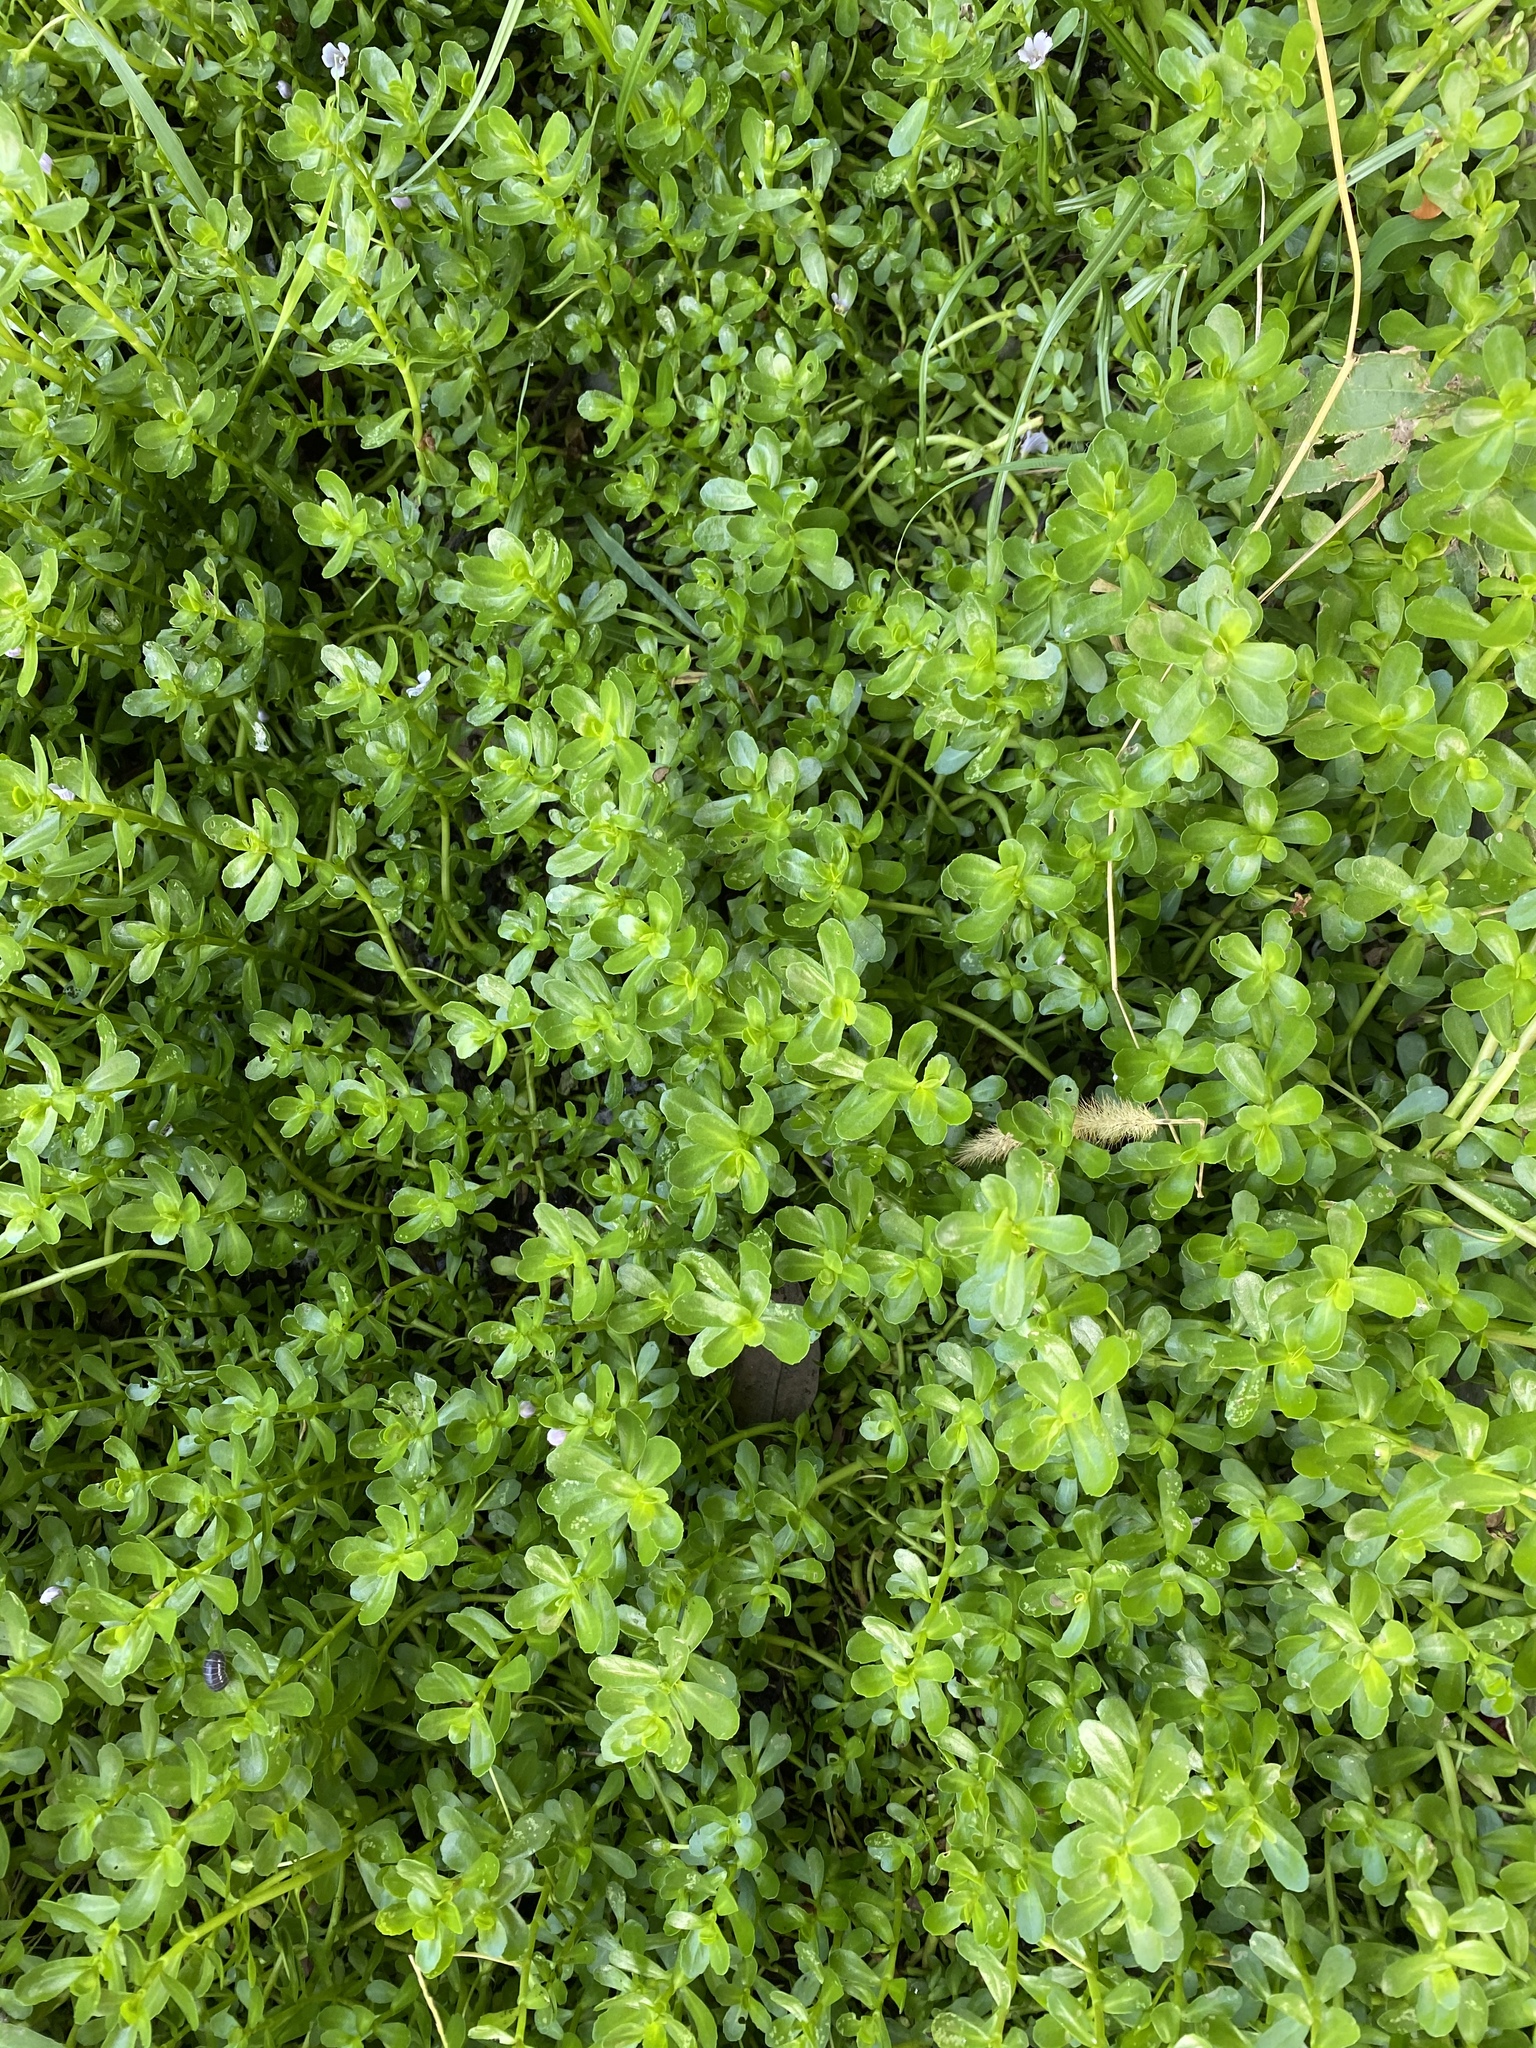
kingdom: Plantae
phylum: Tracheophyta
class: Magnoliopsida
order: Lamiales
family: Plantaginaceae
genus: Bacopa
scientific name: Bacopa monnieri
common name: Indian-pennywort
